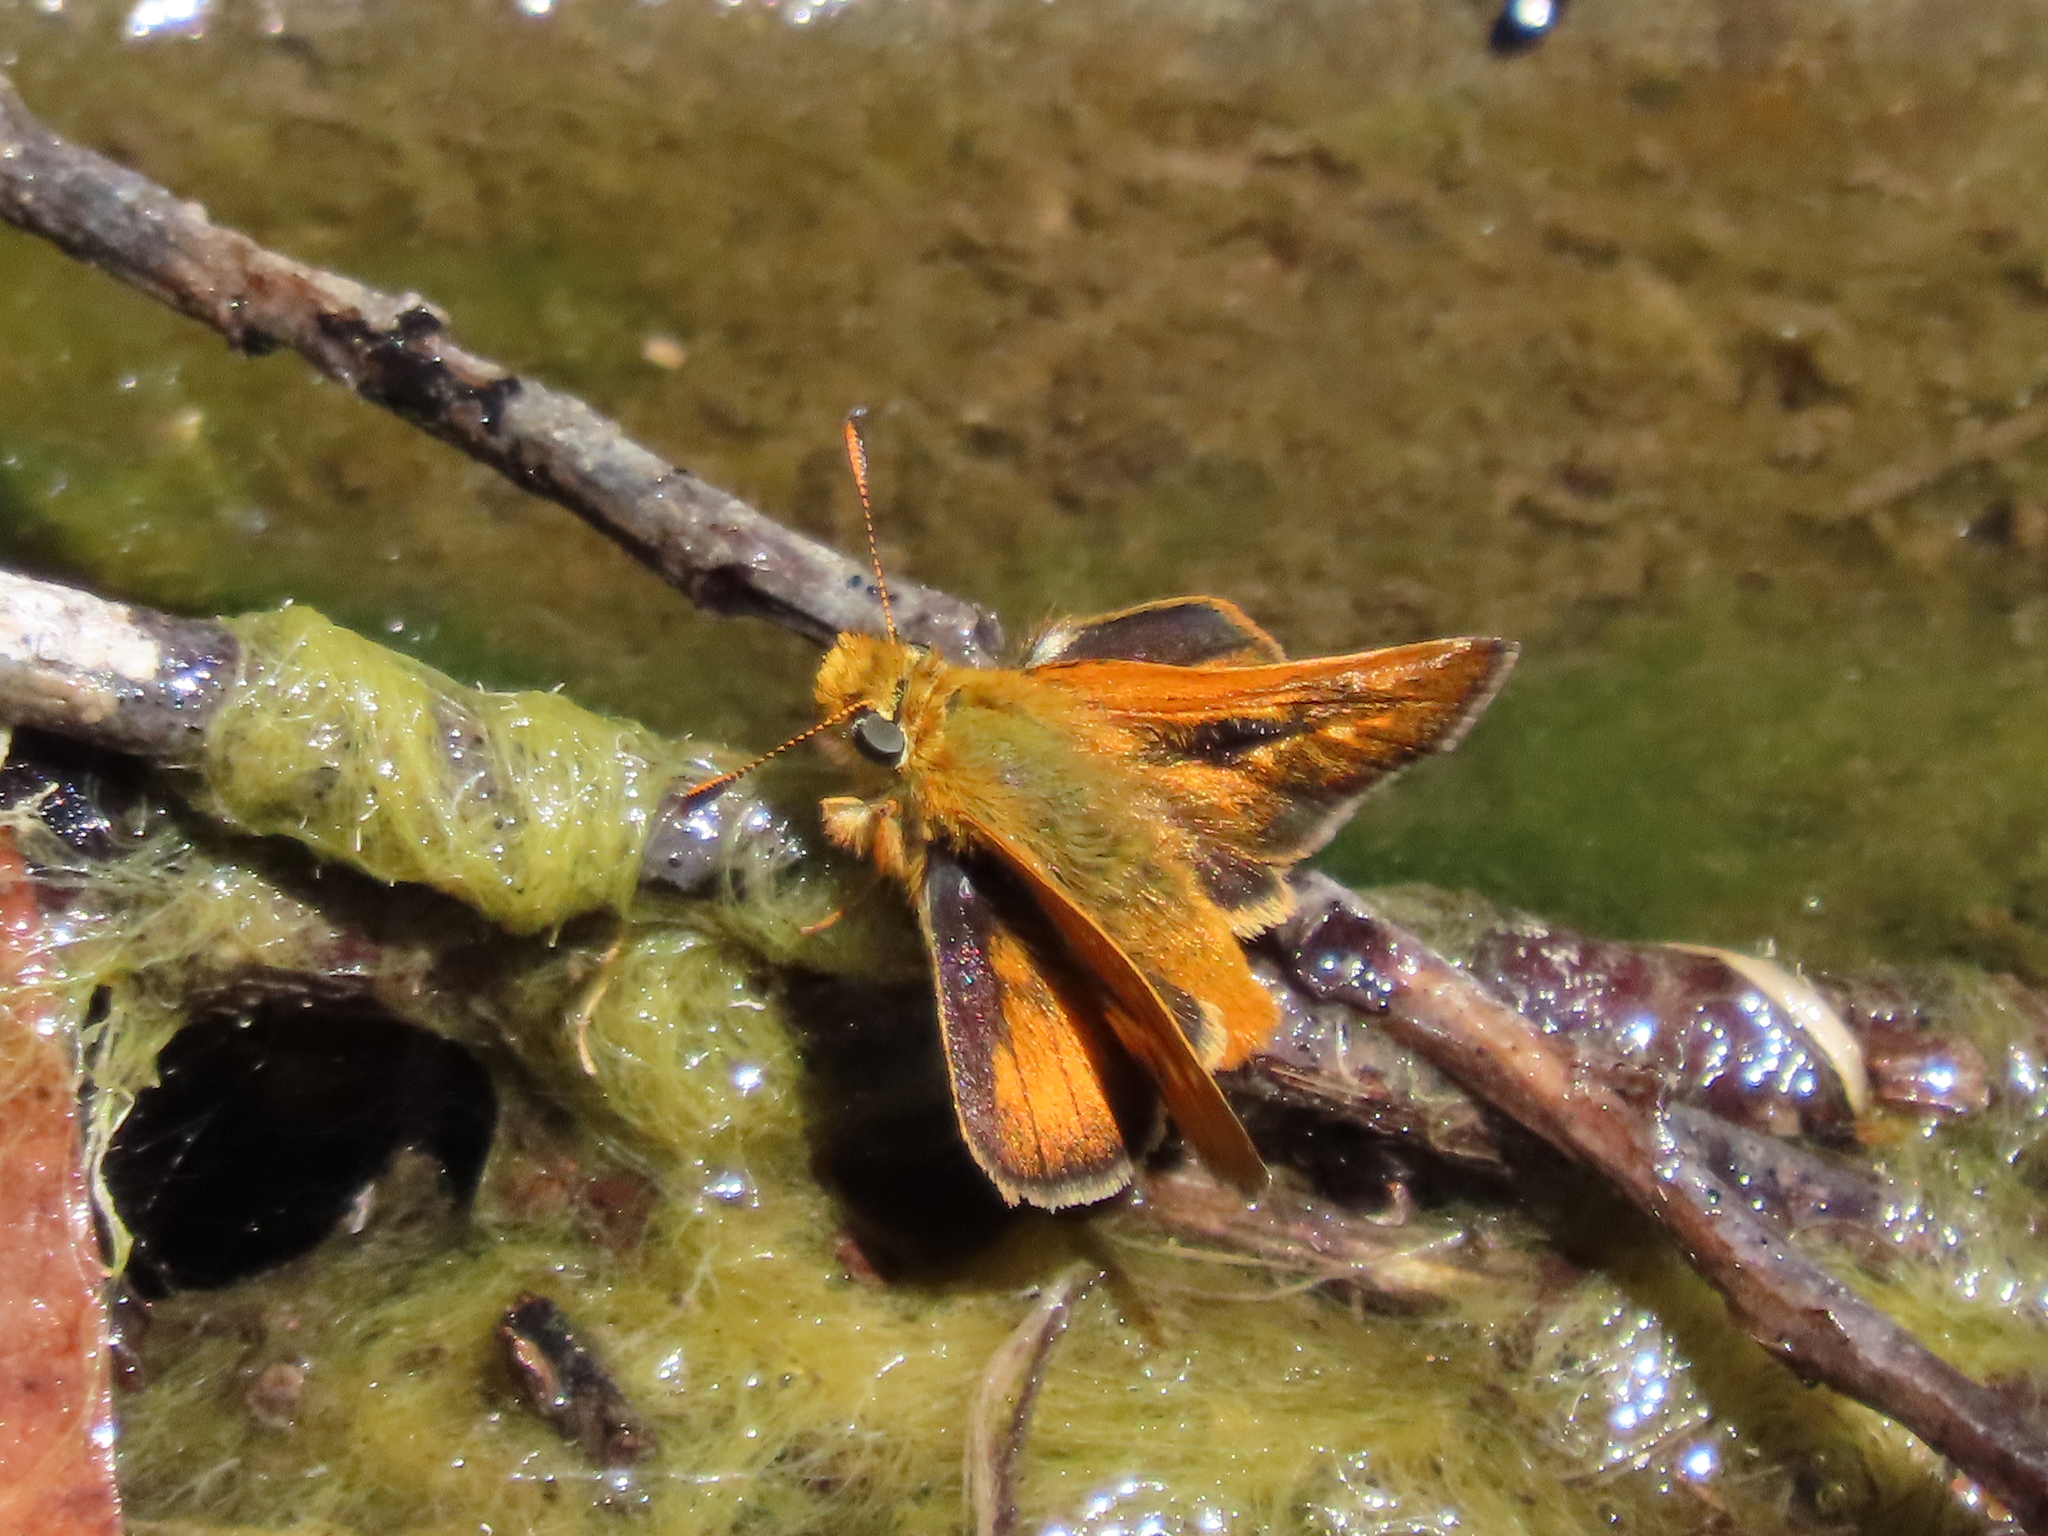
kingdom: Animalia
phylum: Arthropoda
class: Insecta
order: Lepidoptera
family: Hesperiidae
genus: Ochlodes
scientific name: Ochlodes agricola
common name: Rural skipper
